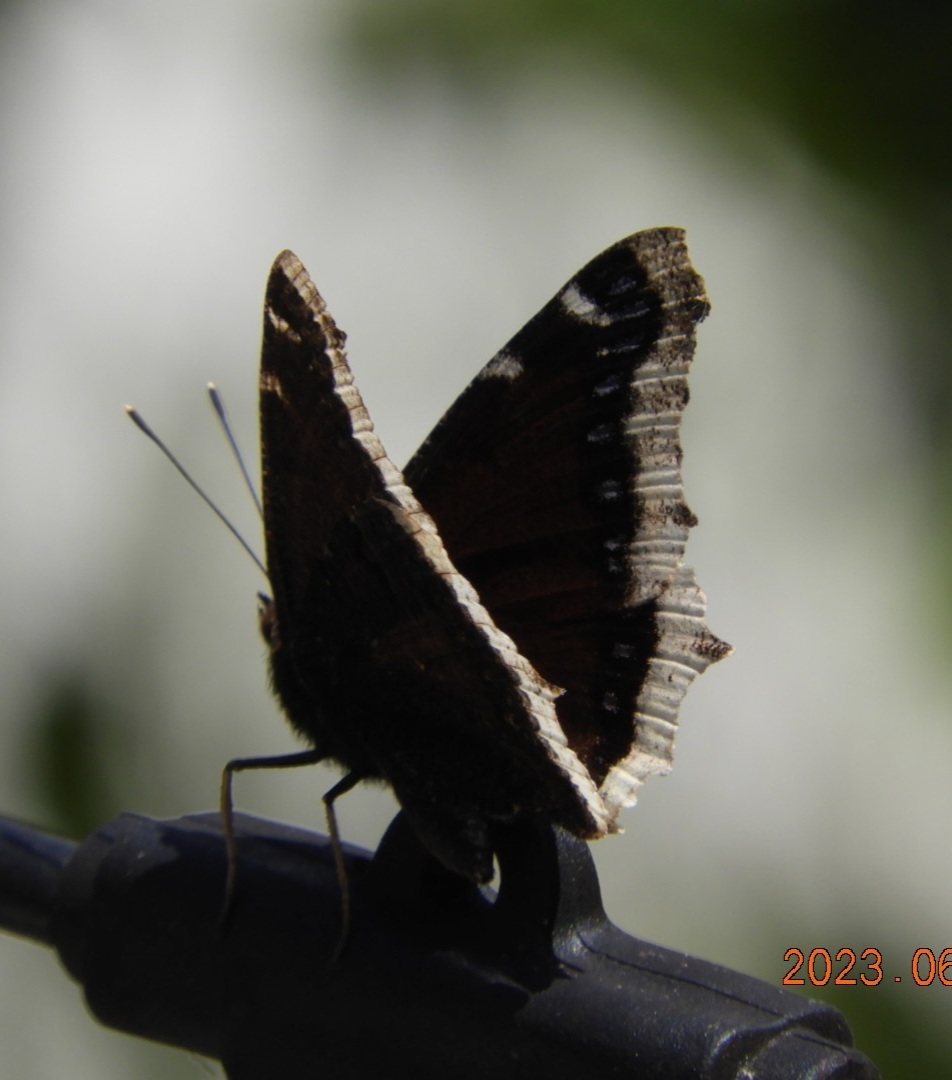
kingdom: Animalia
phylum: Arthropoda
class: Insecta
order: Lepidoptera
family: Nymphalidae
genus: Nymphalis
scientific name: Nymphalis antiopa
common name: Camberwell beauty
